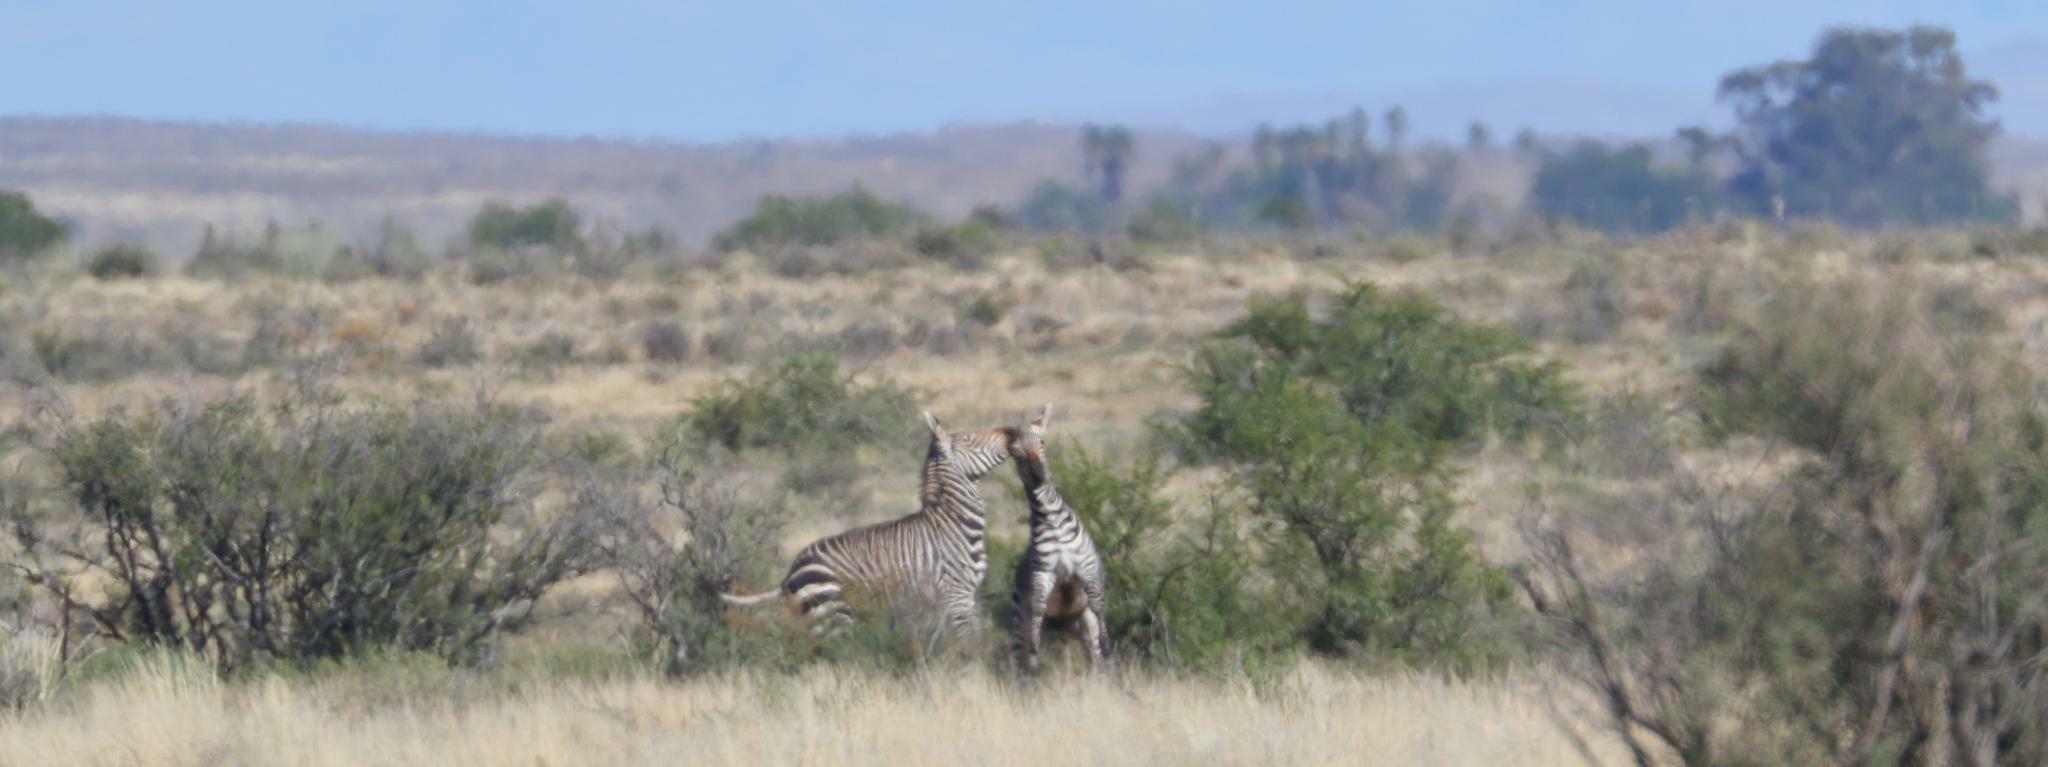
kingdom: Animalia
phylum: Chordata
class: Mammalia
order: Perissodactyla
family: Equidae
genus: Equus
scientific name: Equus zebra
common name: Mountain zebra
